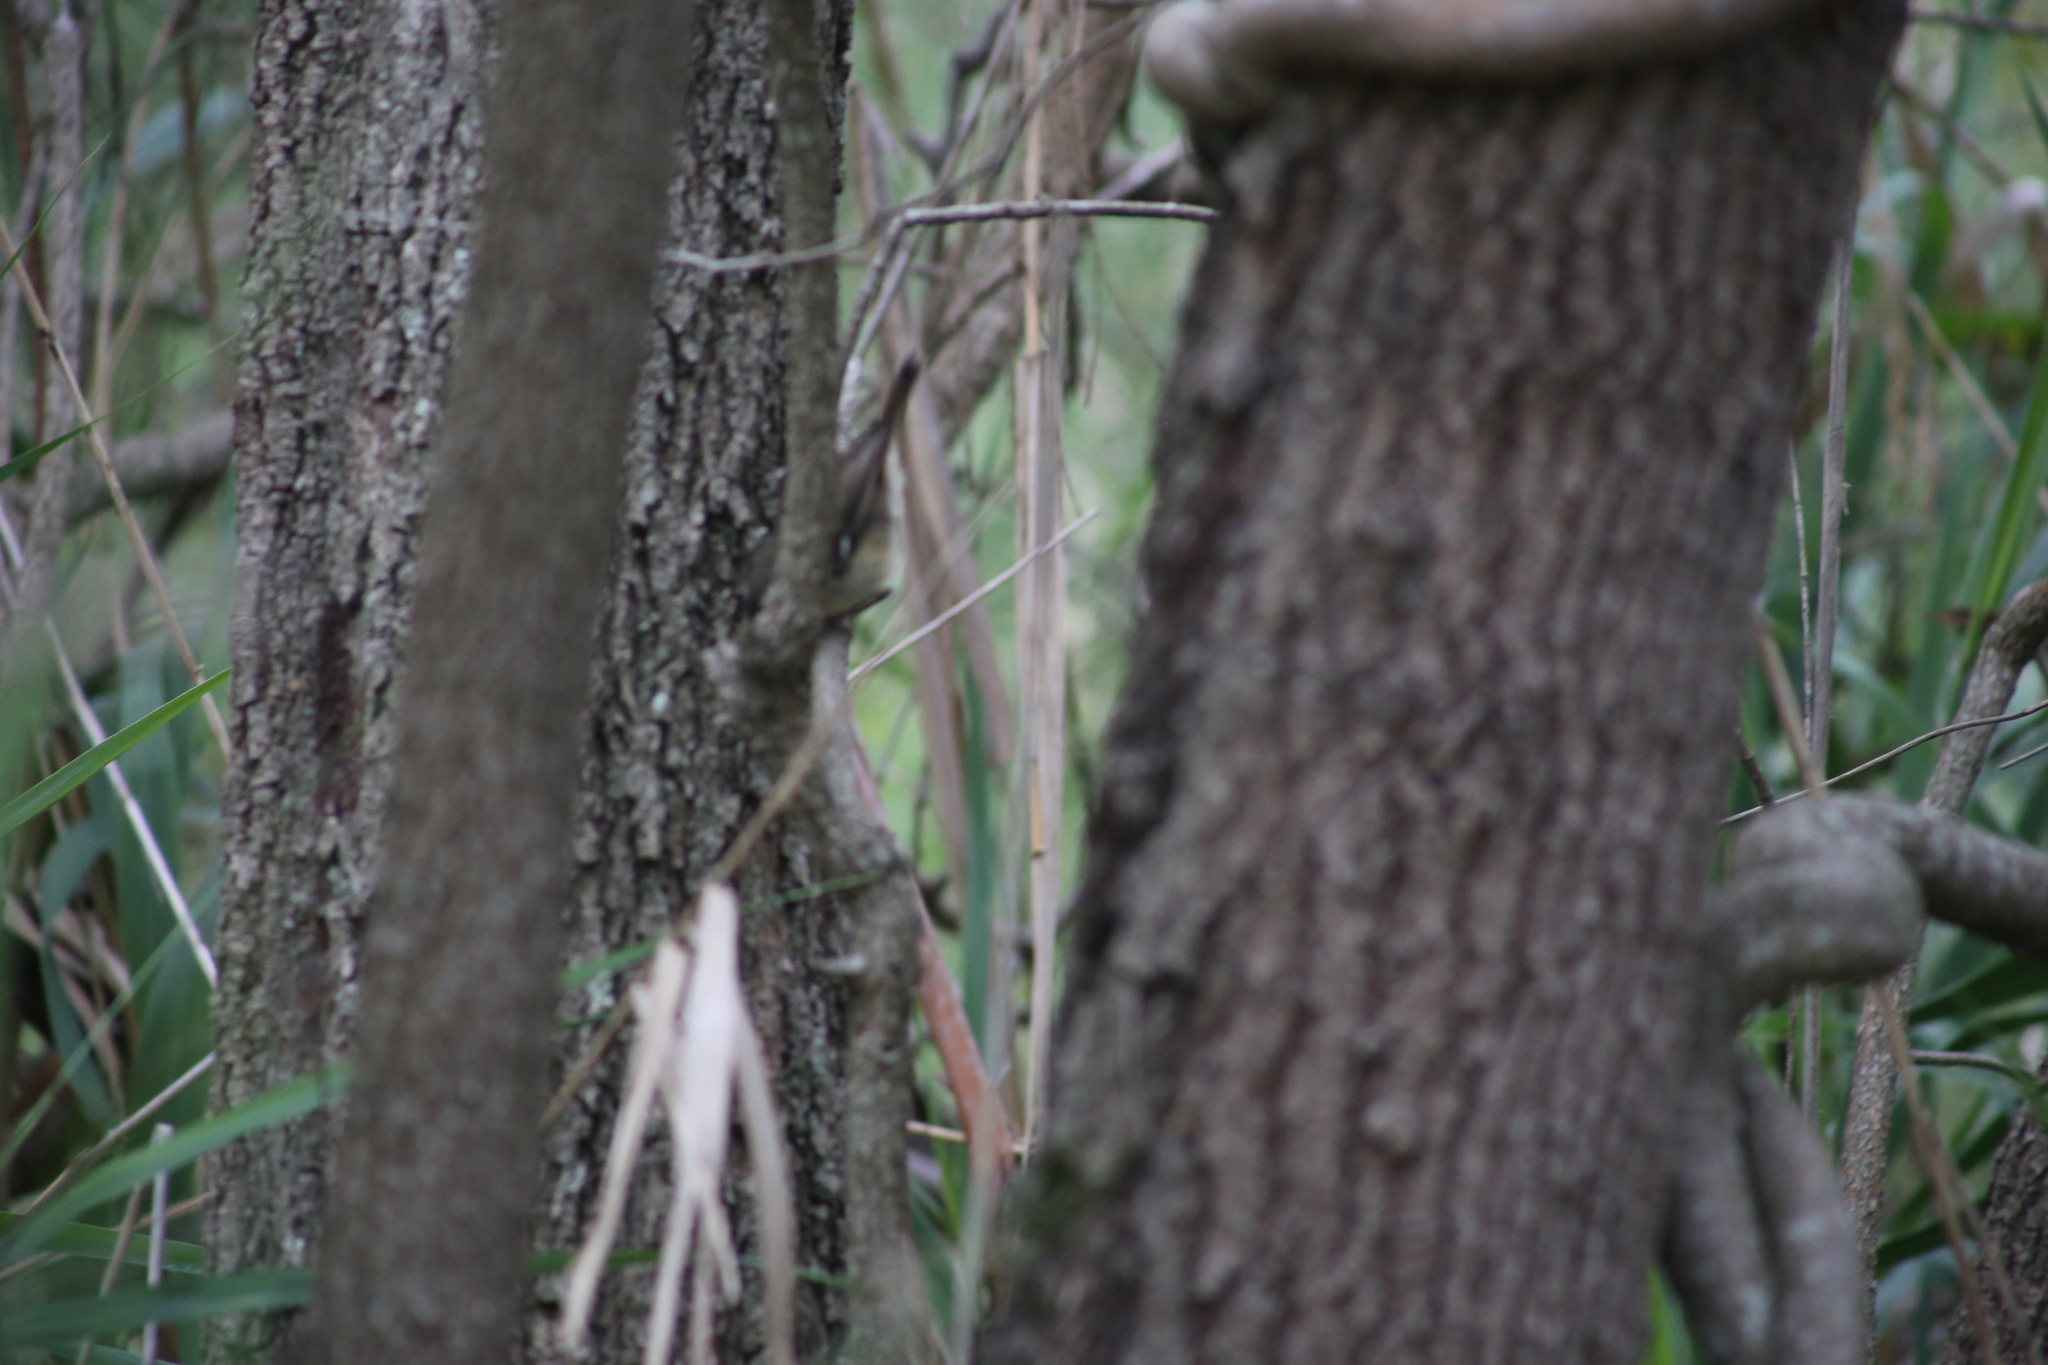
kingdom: Animalia
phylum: Chordata
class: Aves
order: Passeriformes
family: Acanthizidae
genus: Sericornis
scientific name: Sericornis frontalis
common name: White-browed scrubwren
